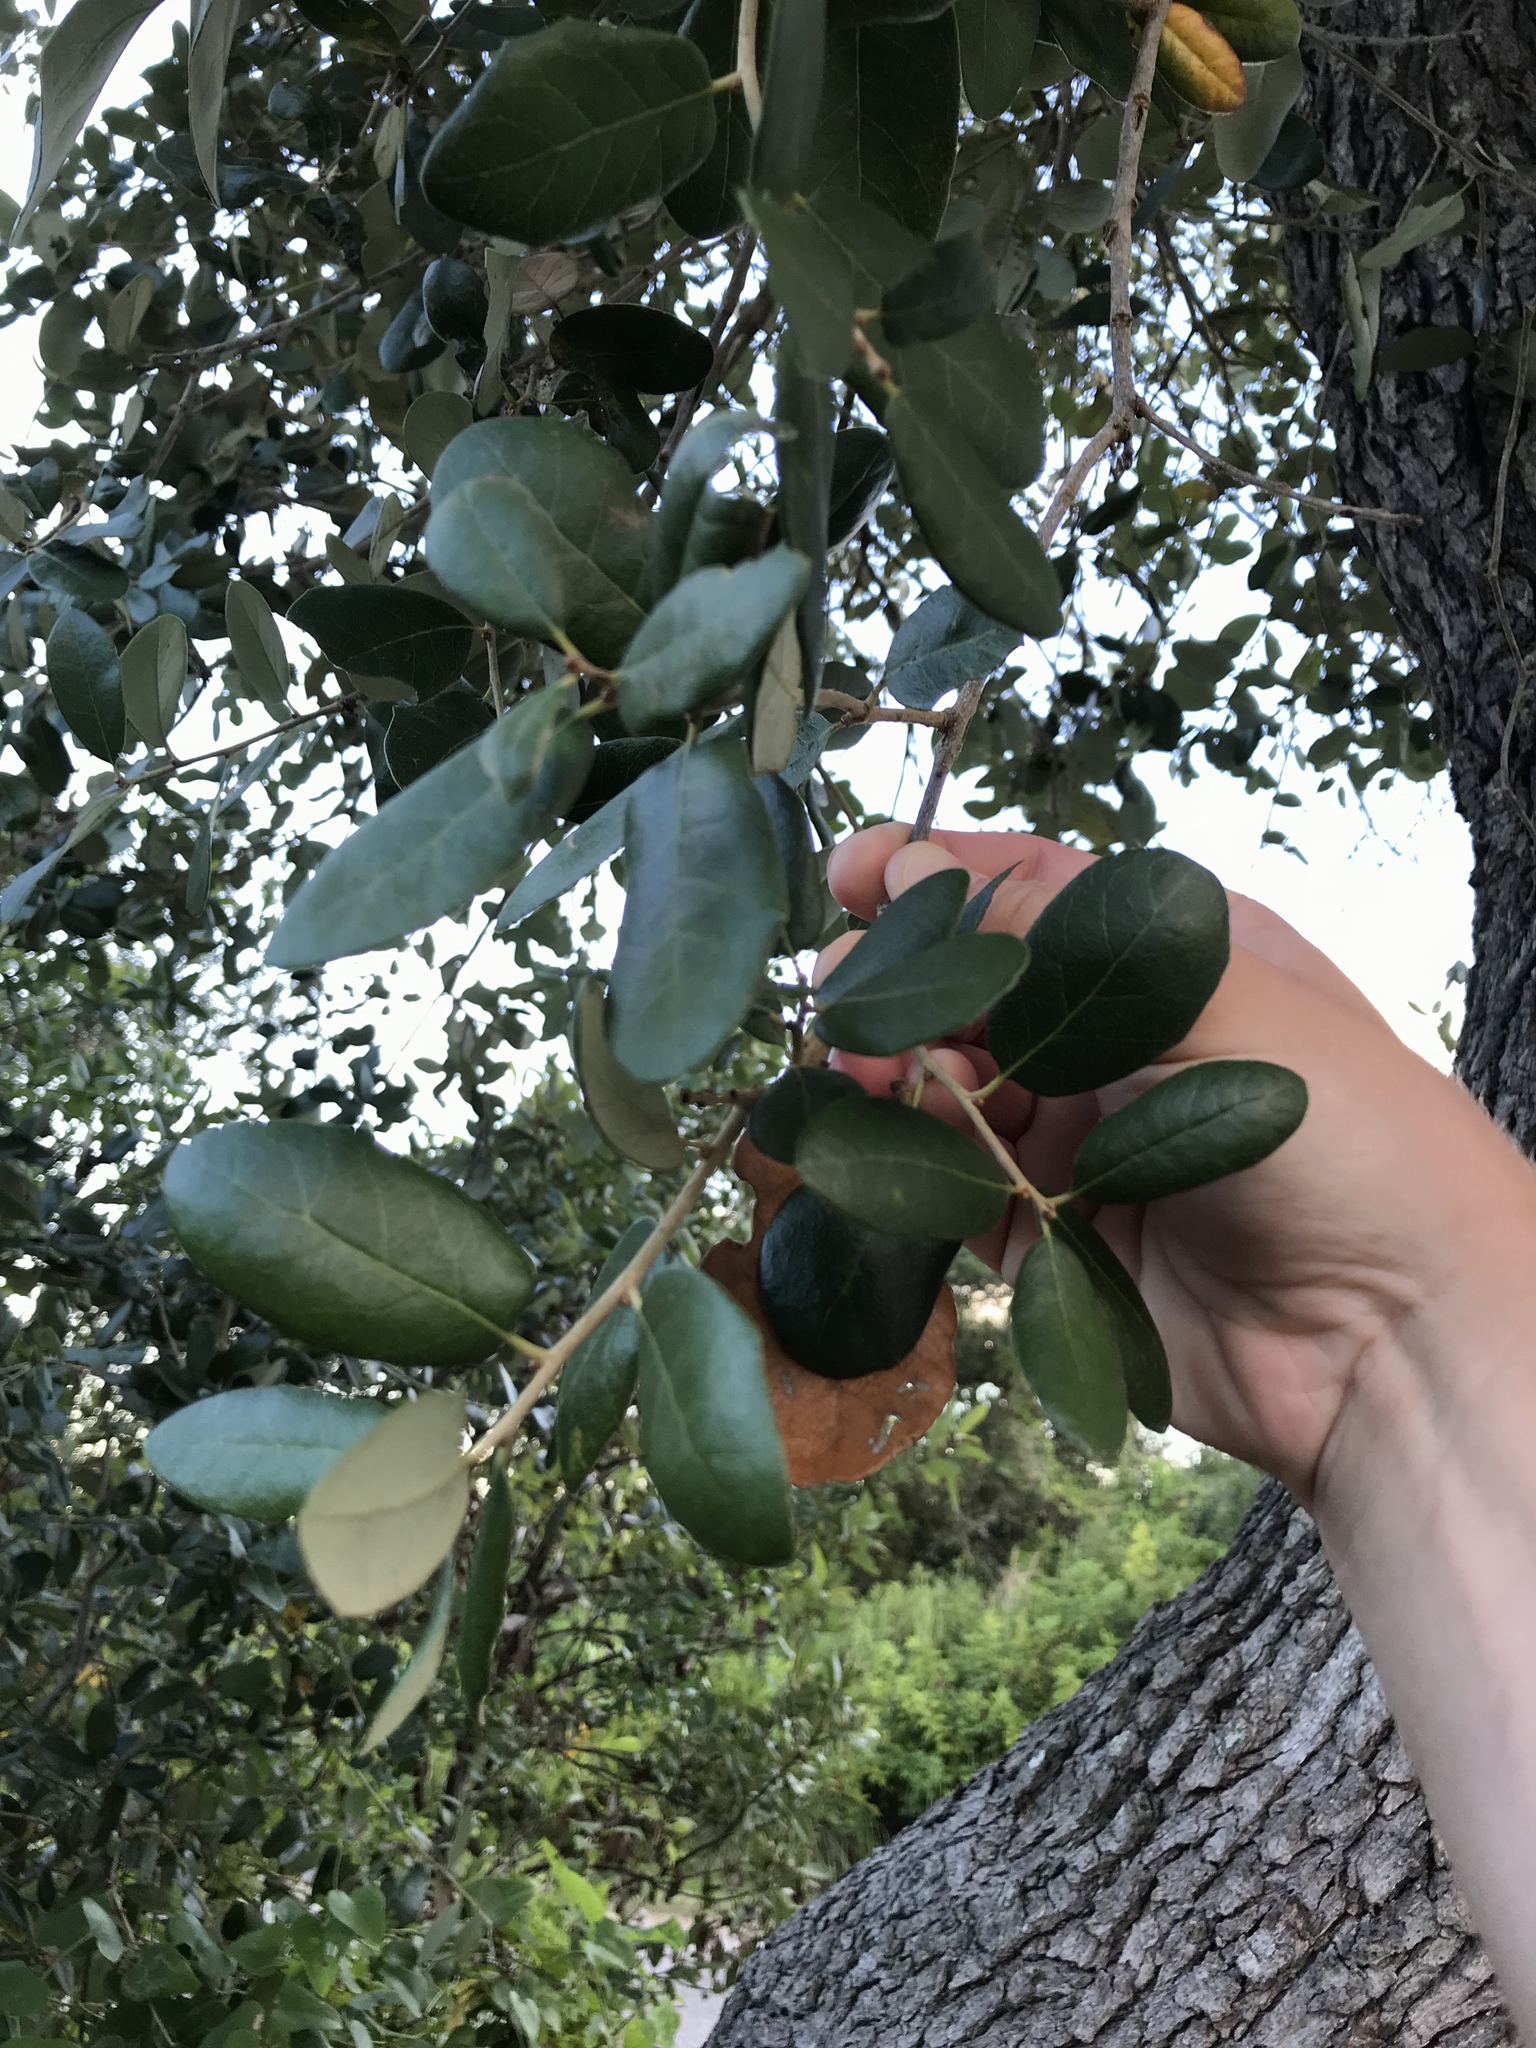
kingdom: Plantae
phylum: Tracheophyta
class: Magnoliopsida
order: Fagales
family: Fagaceae
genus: Quercus
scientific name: Quercus virginiana
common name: Southern live oak
